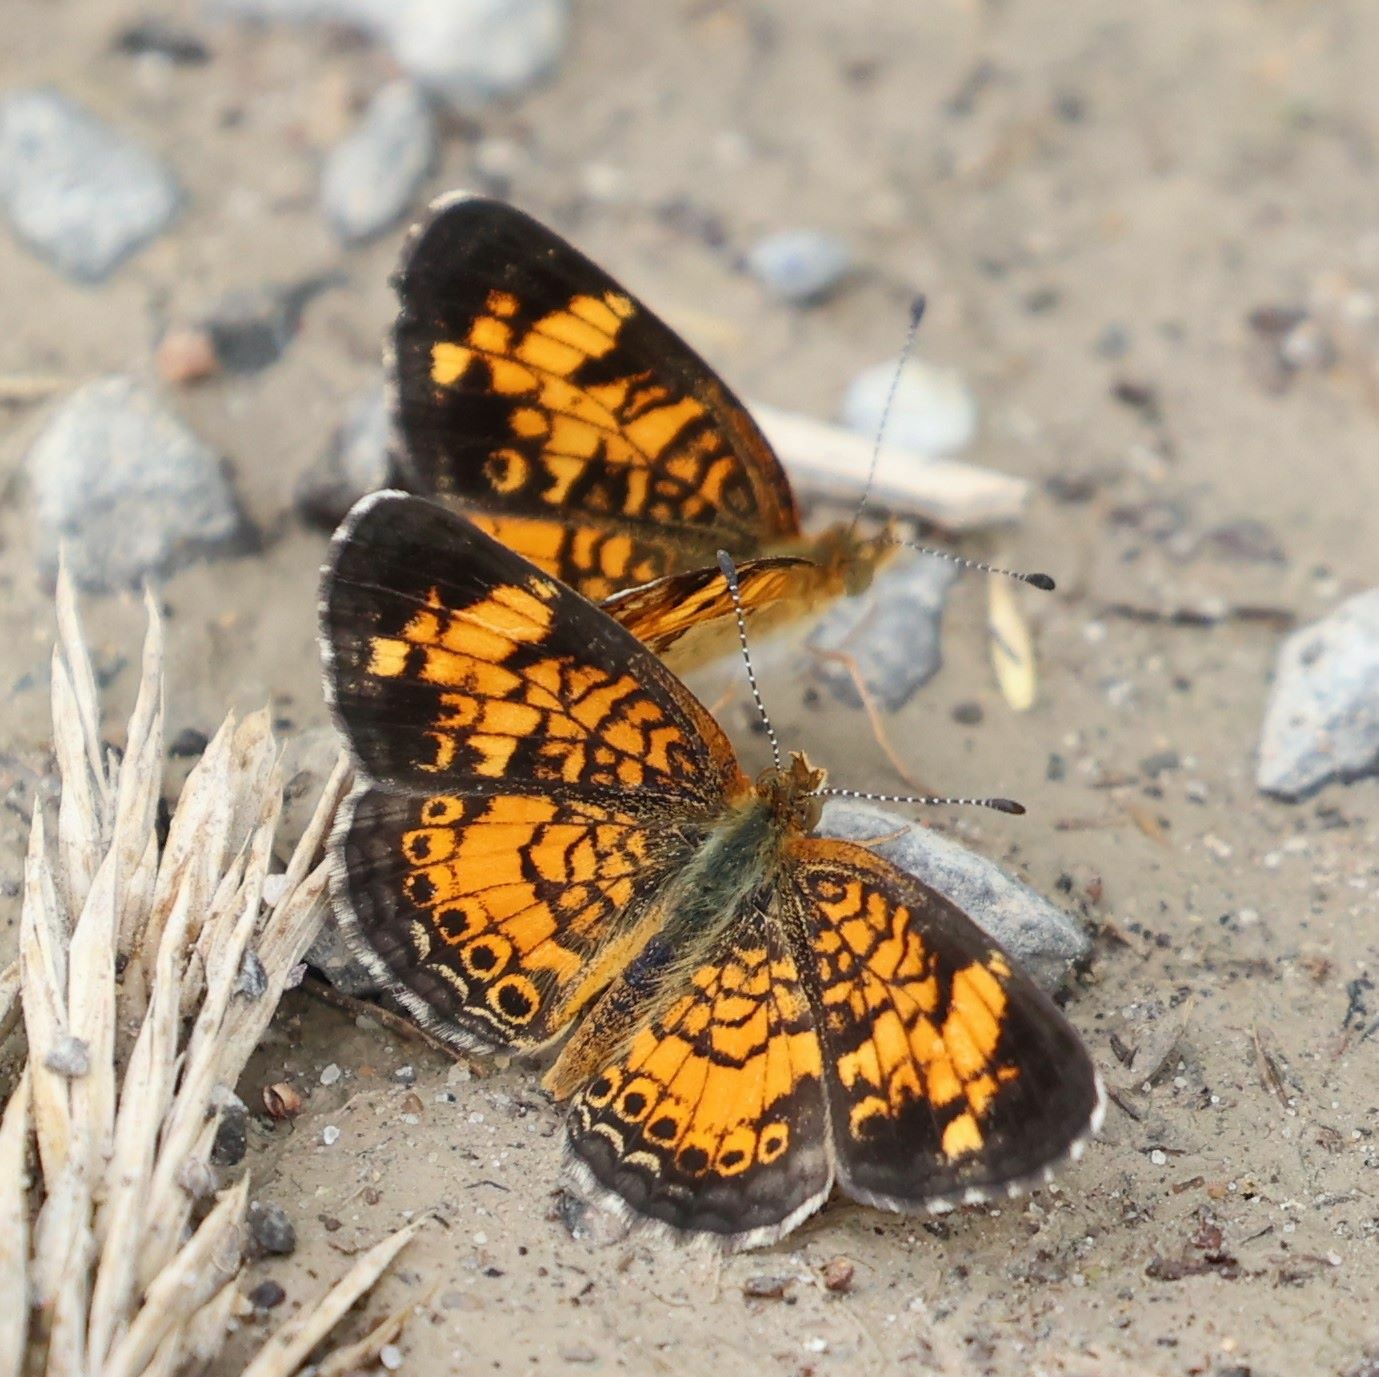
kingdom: Animalia
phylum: Arthropoda
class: Insecta
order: Lepidoptera
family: Nymphalidae
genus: Phyciodes
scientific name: Phyciodes tharos
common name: Pearl crescent
